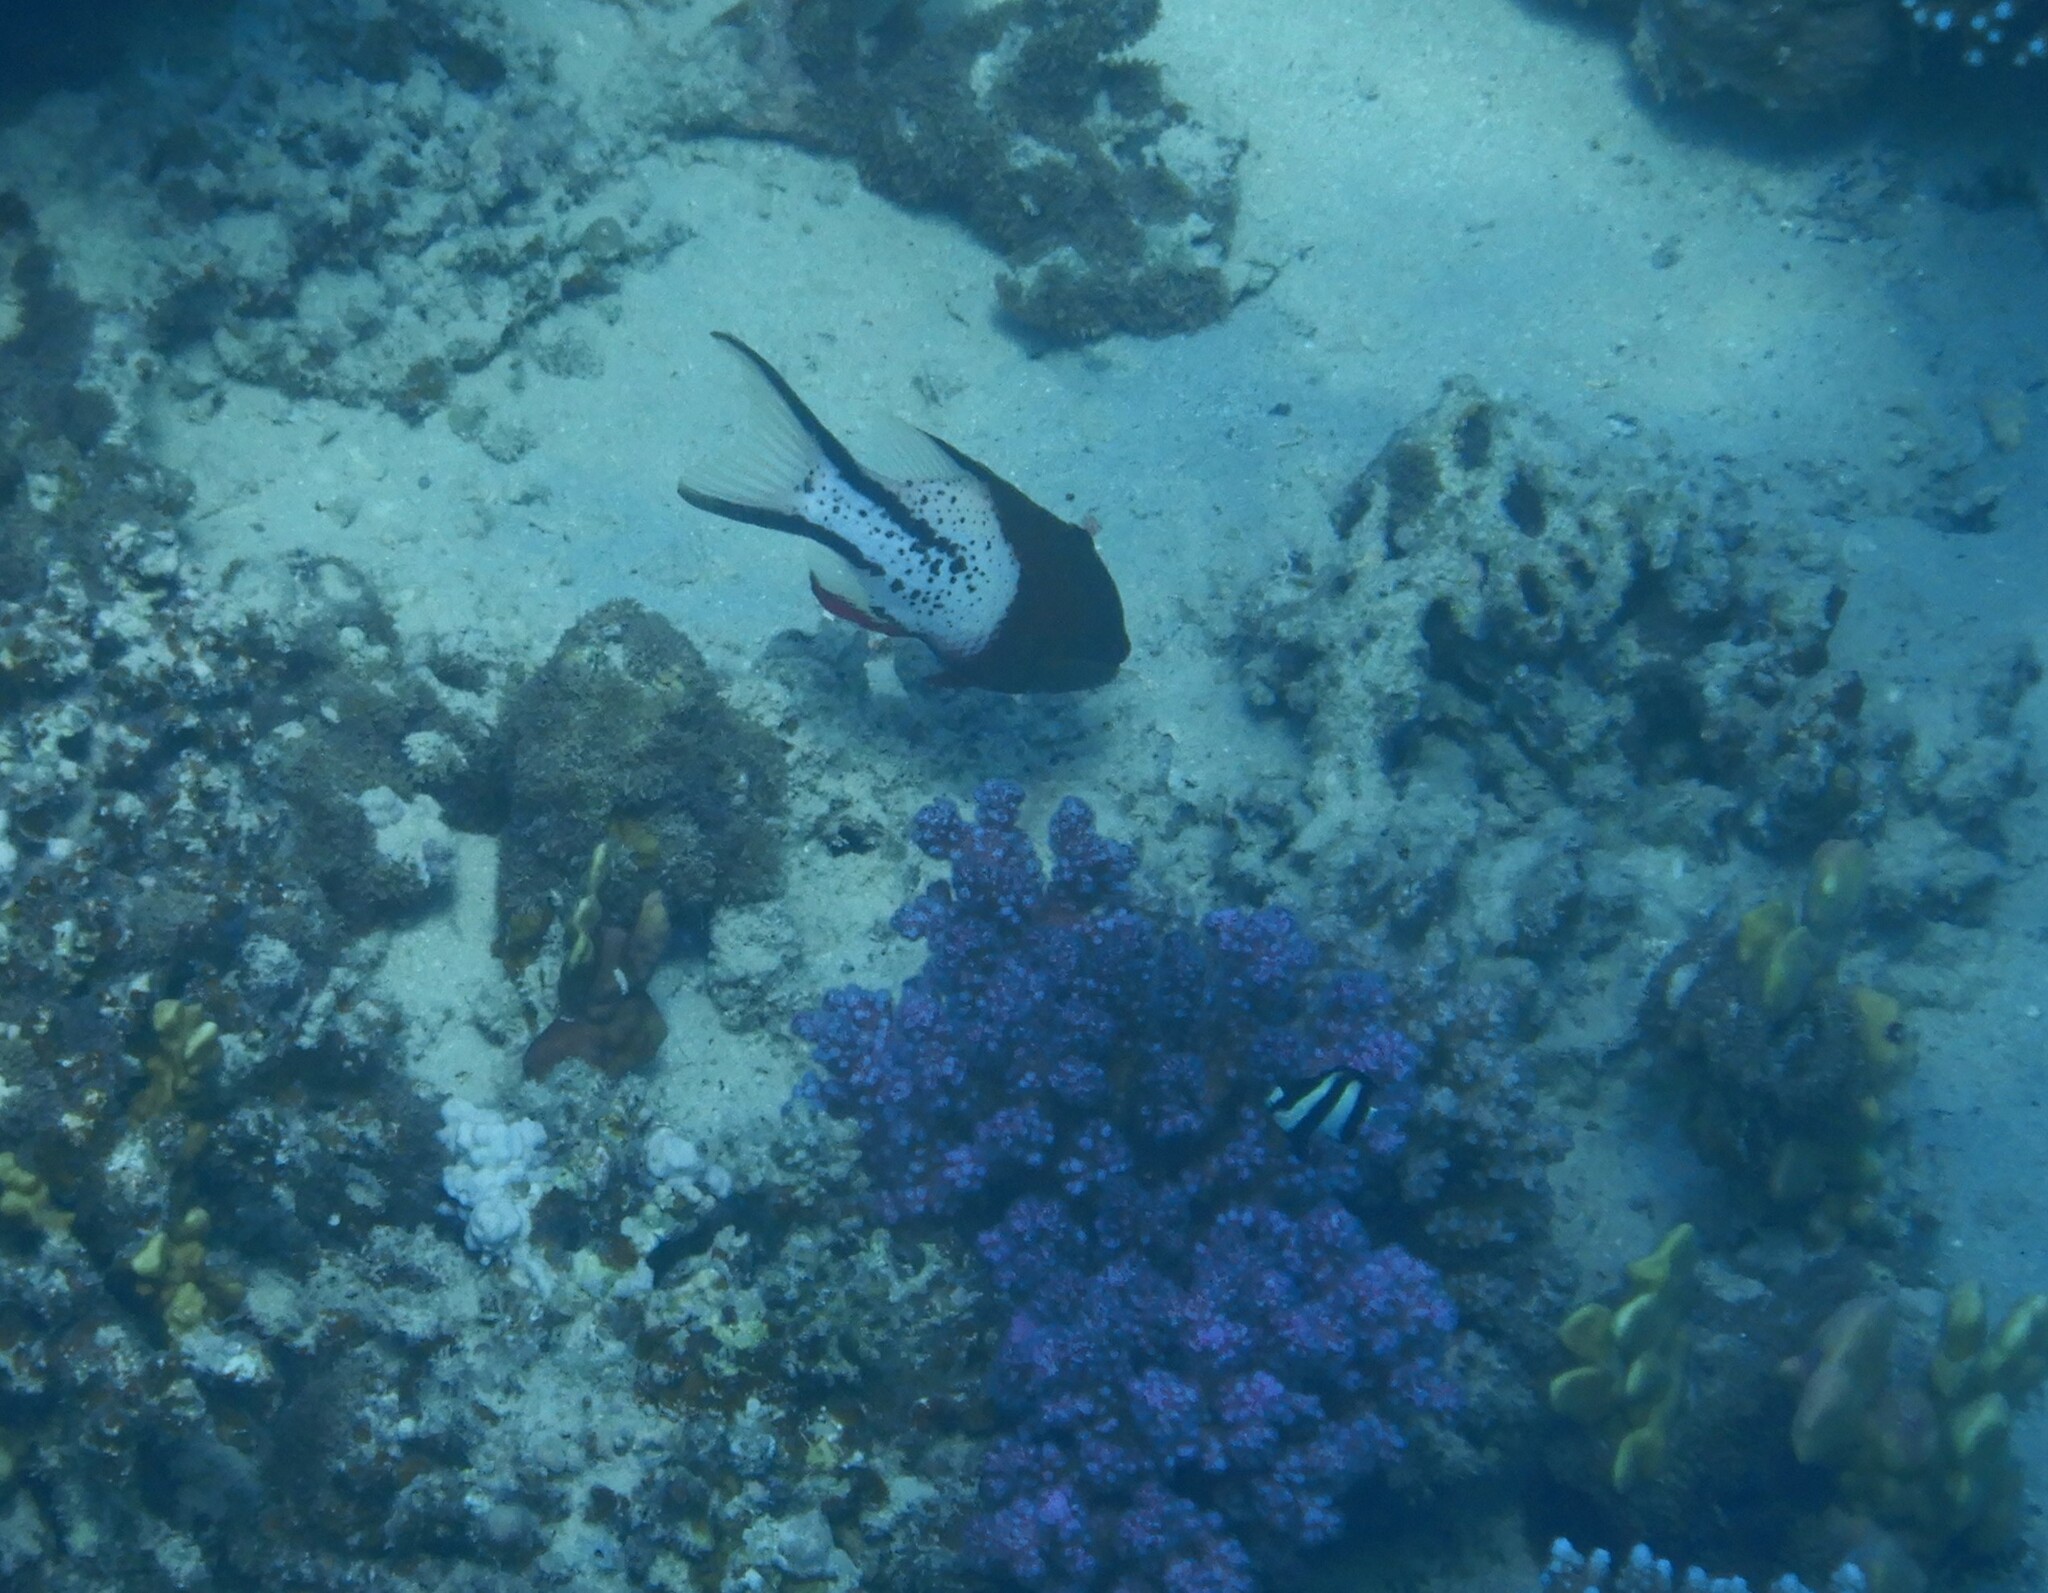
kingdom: Animalia
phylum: Chordata
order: Perciformes
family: Pomacentridae
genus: Dascyllus
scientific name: Dascyllus abudafur
